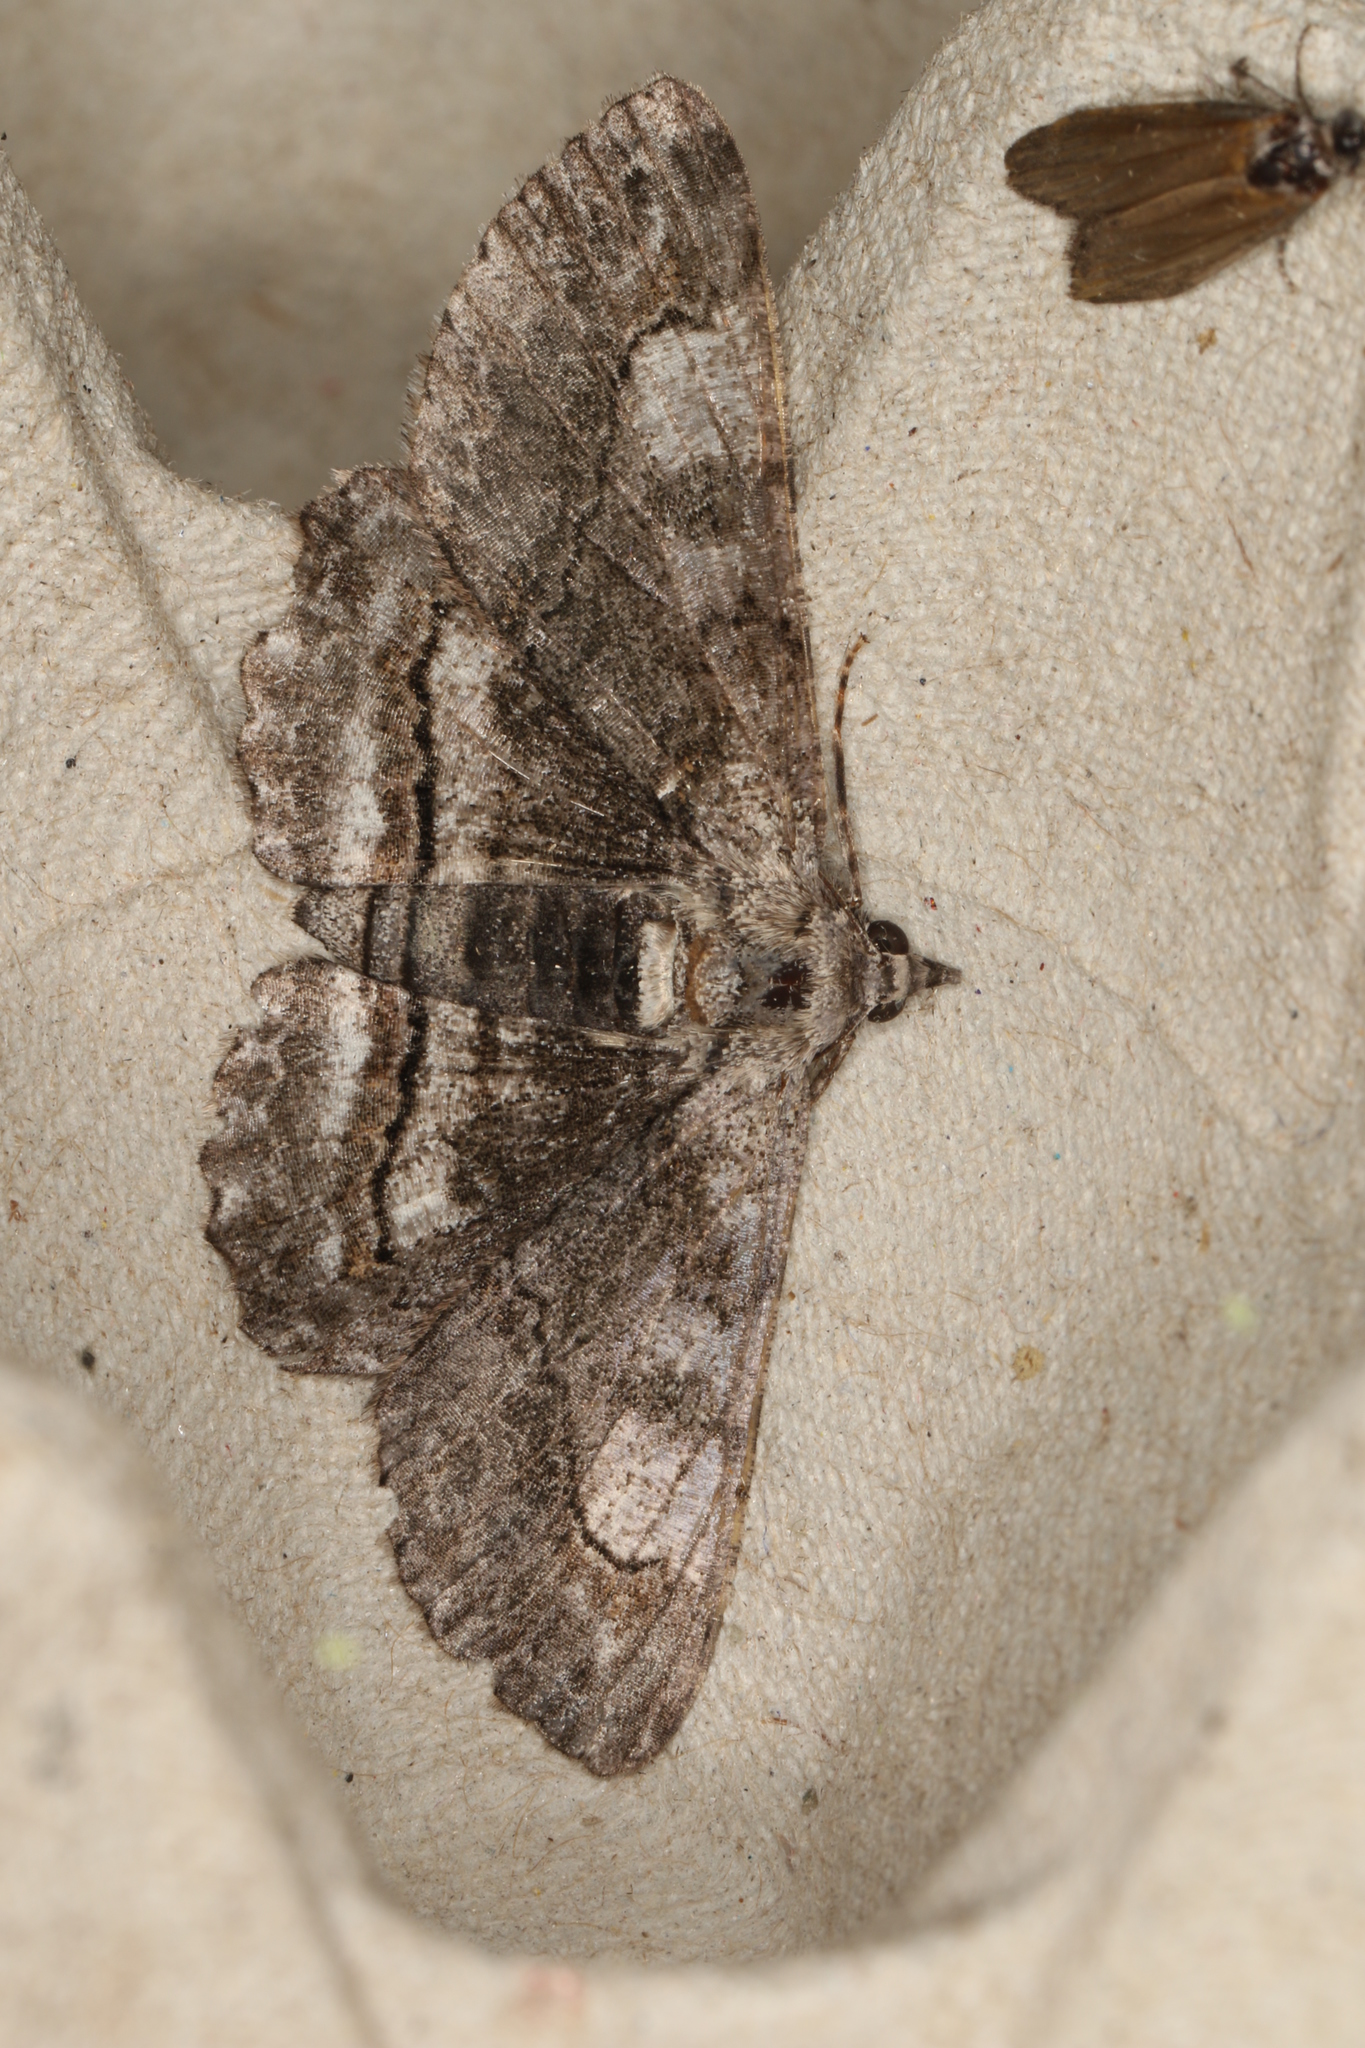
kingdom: Animalia
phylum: Arthropoda
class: Insecta
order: Lepidoptera
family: Geometridae
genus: Cleora
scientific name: Cleora goldfinchi
